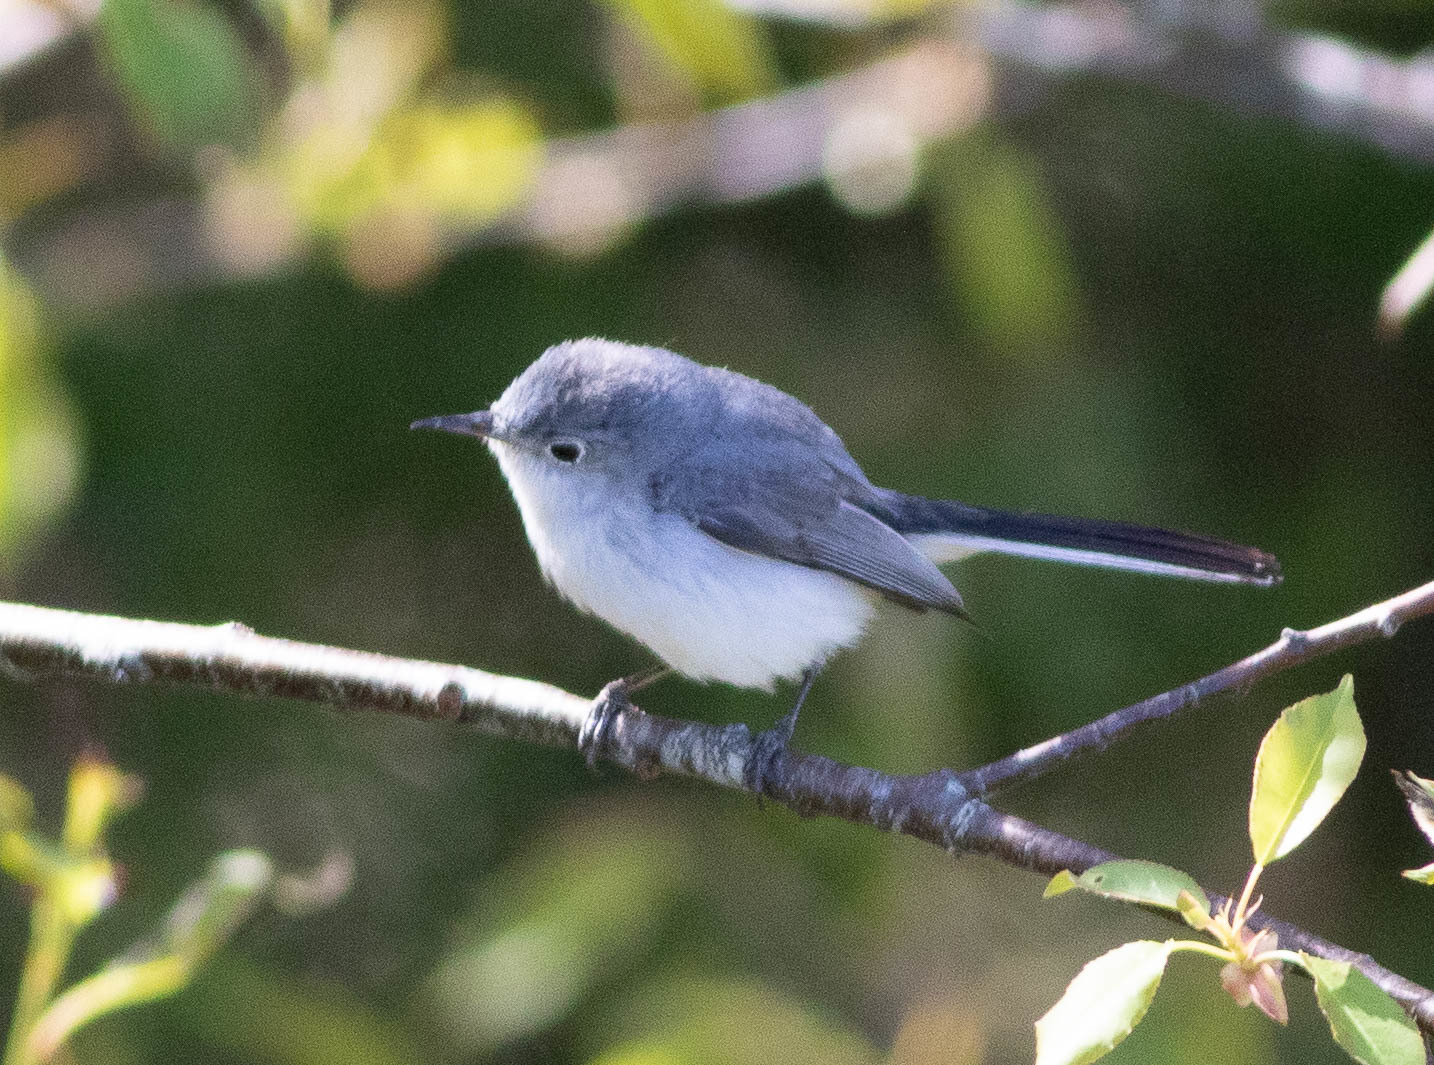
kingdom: Animalia
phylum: Chordata
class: Aves
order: Passeriformes
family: Polioptilidae
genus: Polioptila
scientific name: Polioptila caerulea
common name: Blue-gray gnatcatcher
